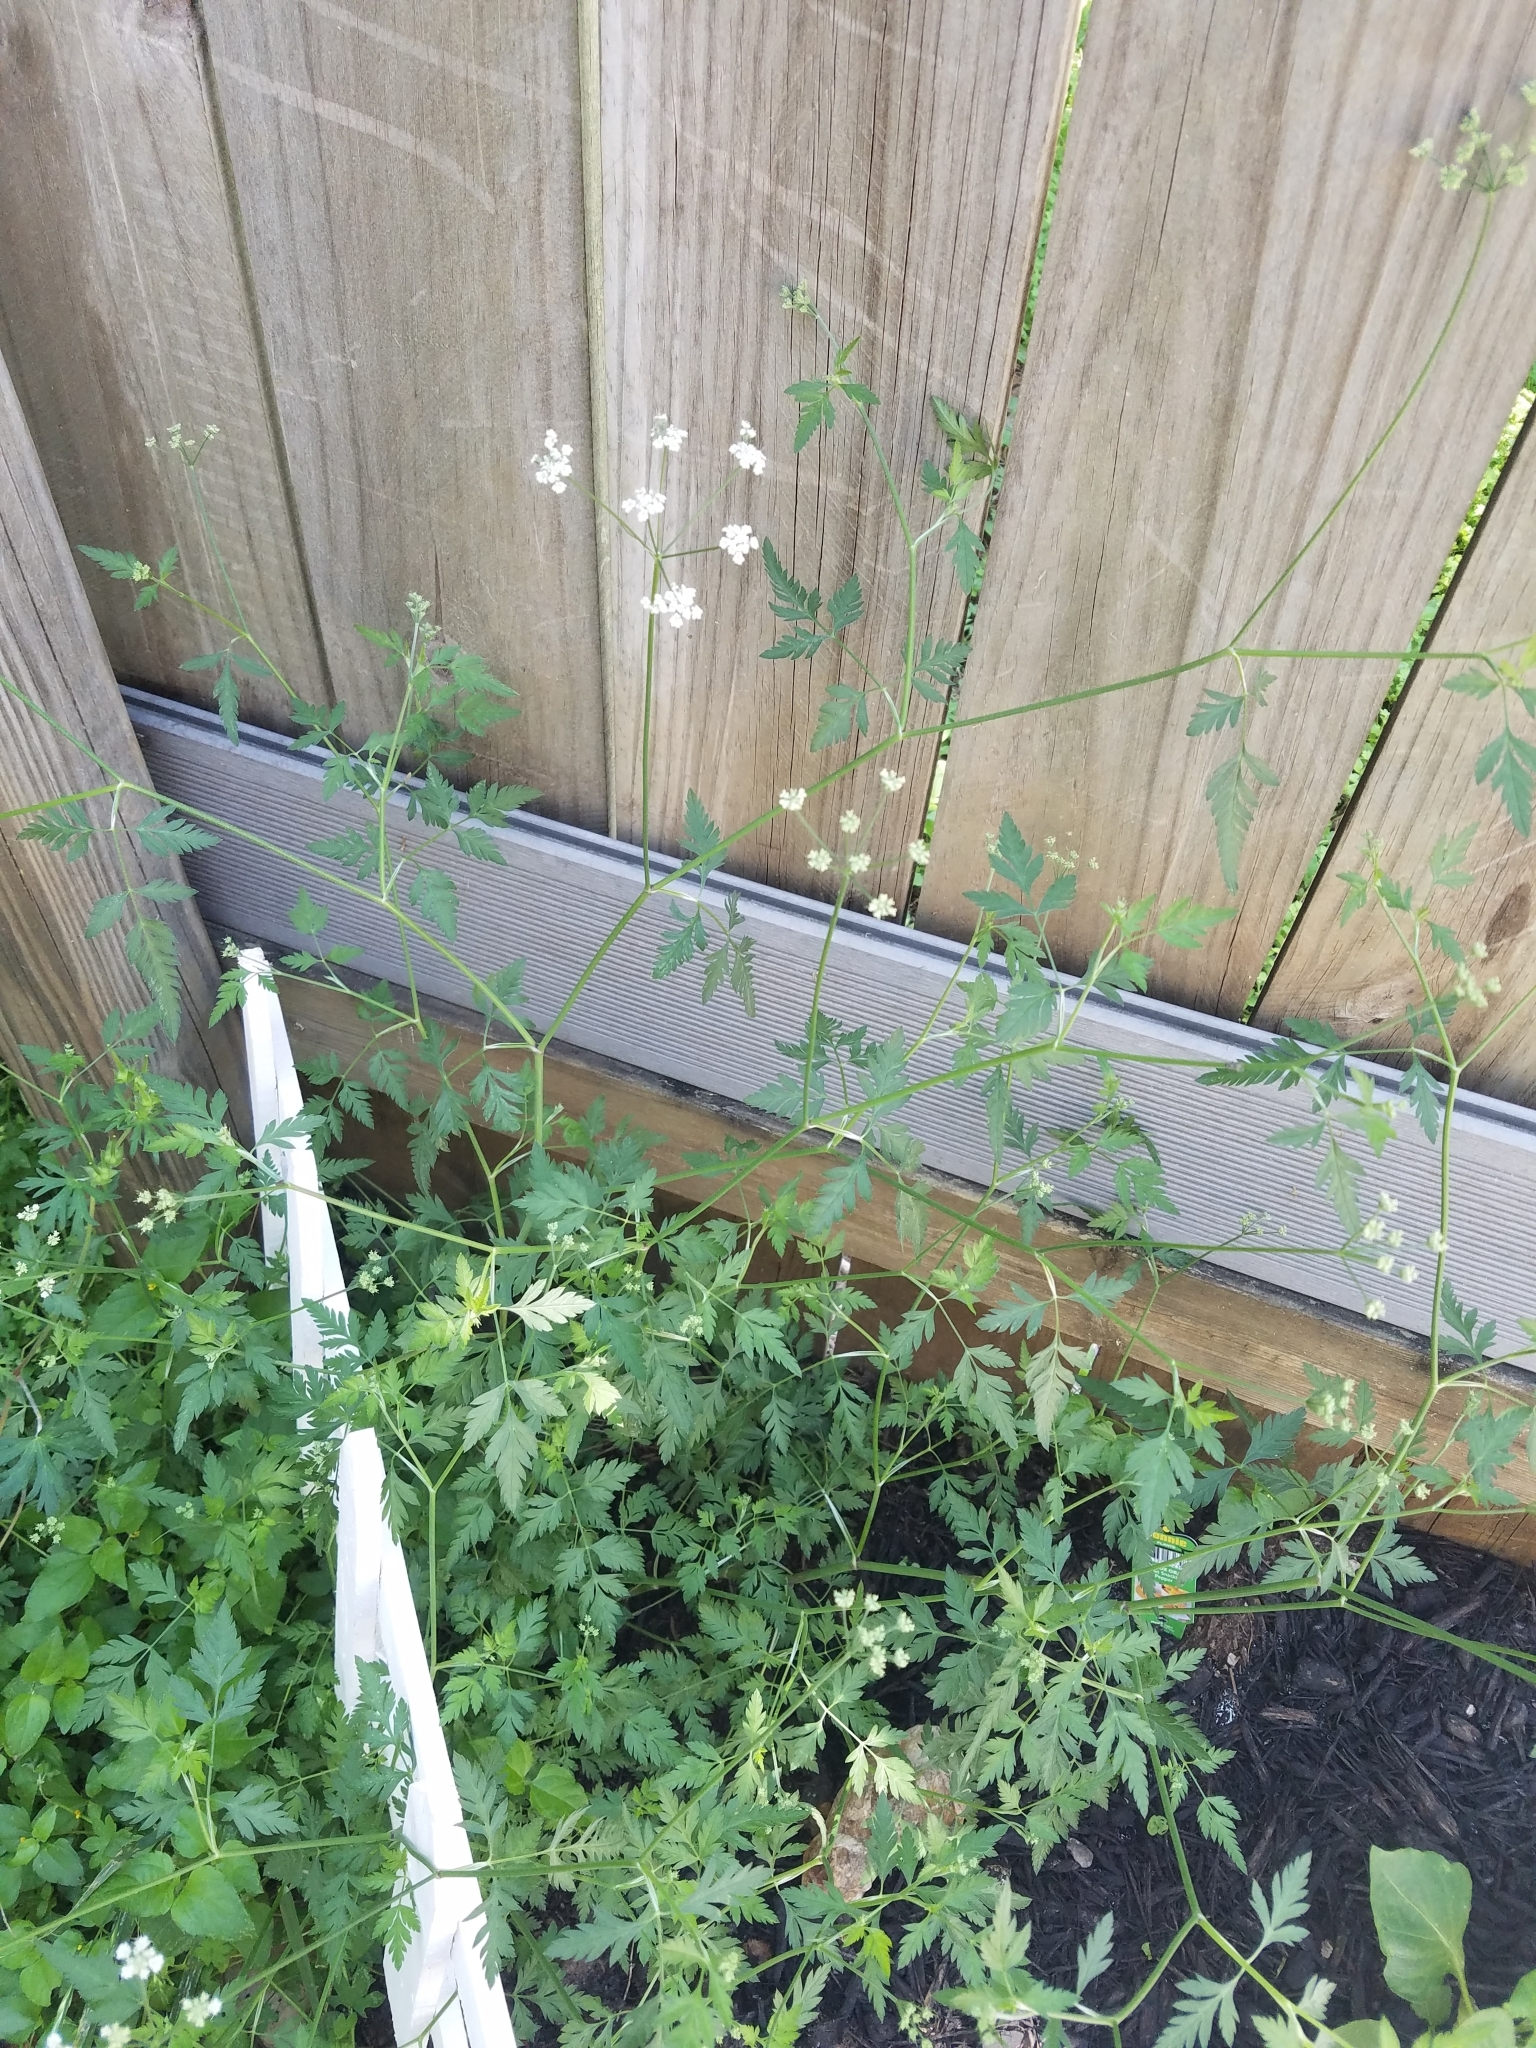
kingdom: Plantae
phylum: Tracheophyta
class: Magnoliopsida
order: Apiales
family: Apiaceae
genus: Torilis
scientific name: Torilis arvensis
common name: Spreading hedge-parsley
